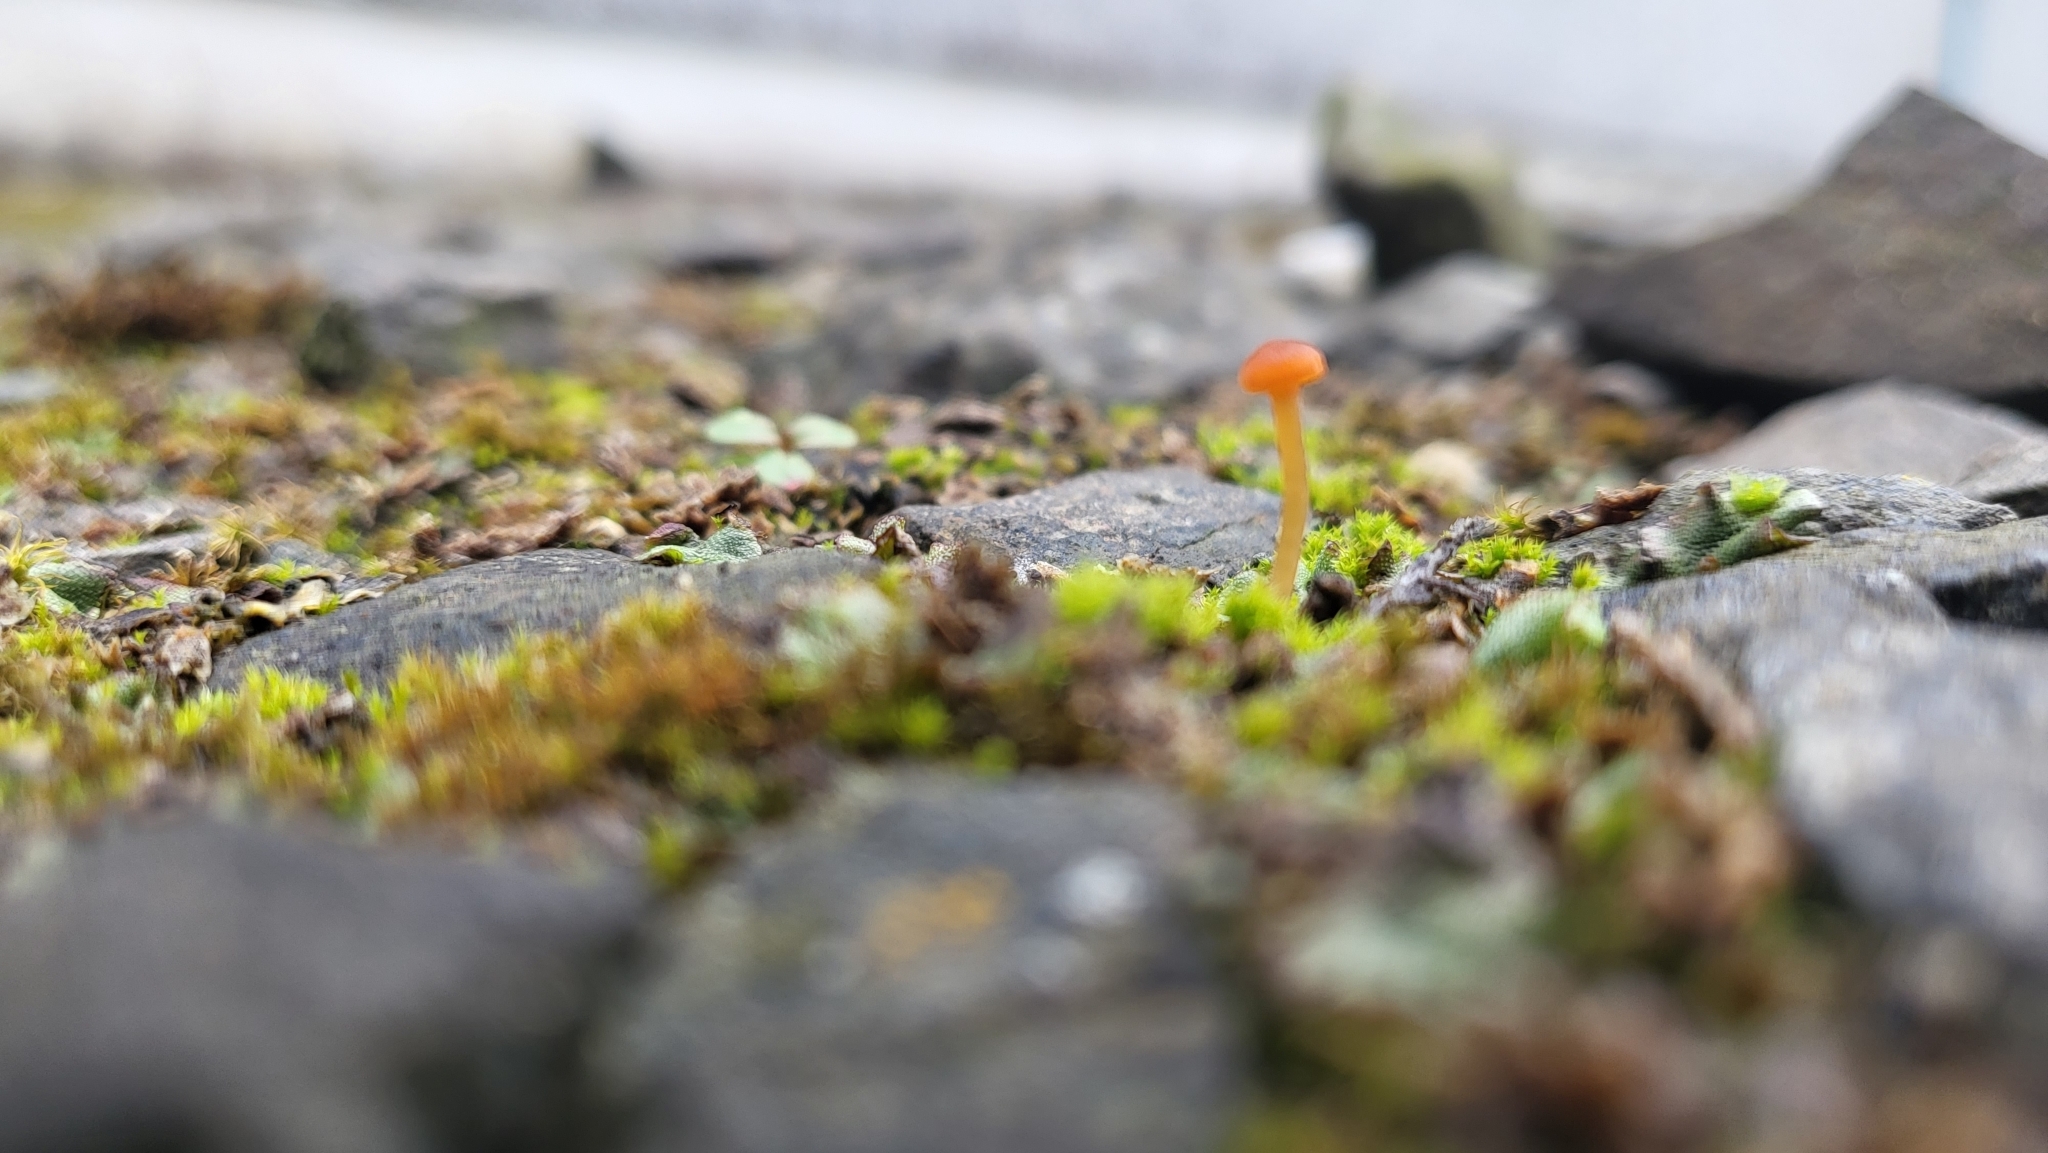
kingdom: Fungi
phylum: Basidiomycota
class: Agaricomycetes
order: Hymenochaetales
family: Rickenellaceae
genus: Loreleia
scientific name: Loreleia marchantiae
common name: Liverwort navel
